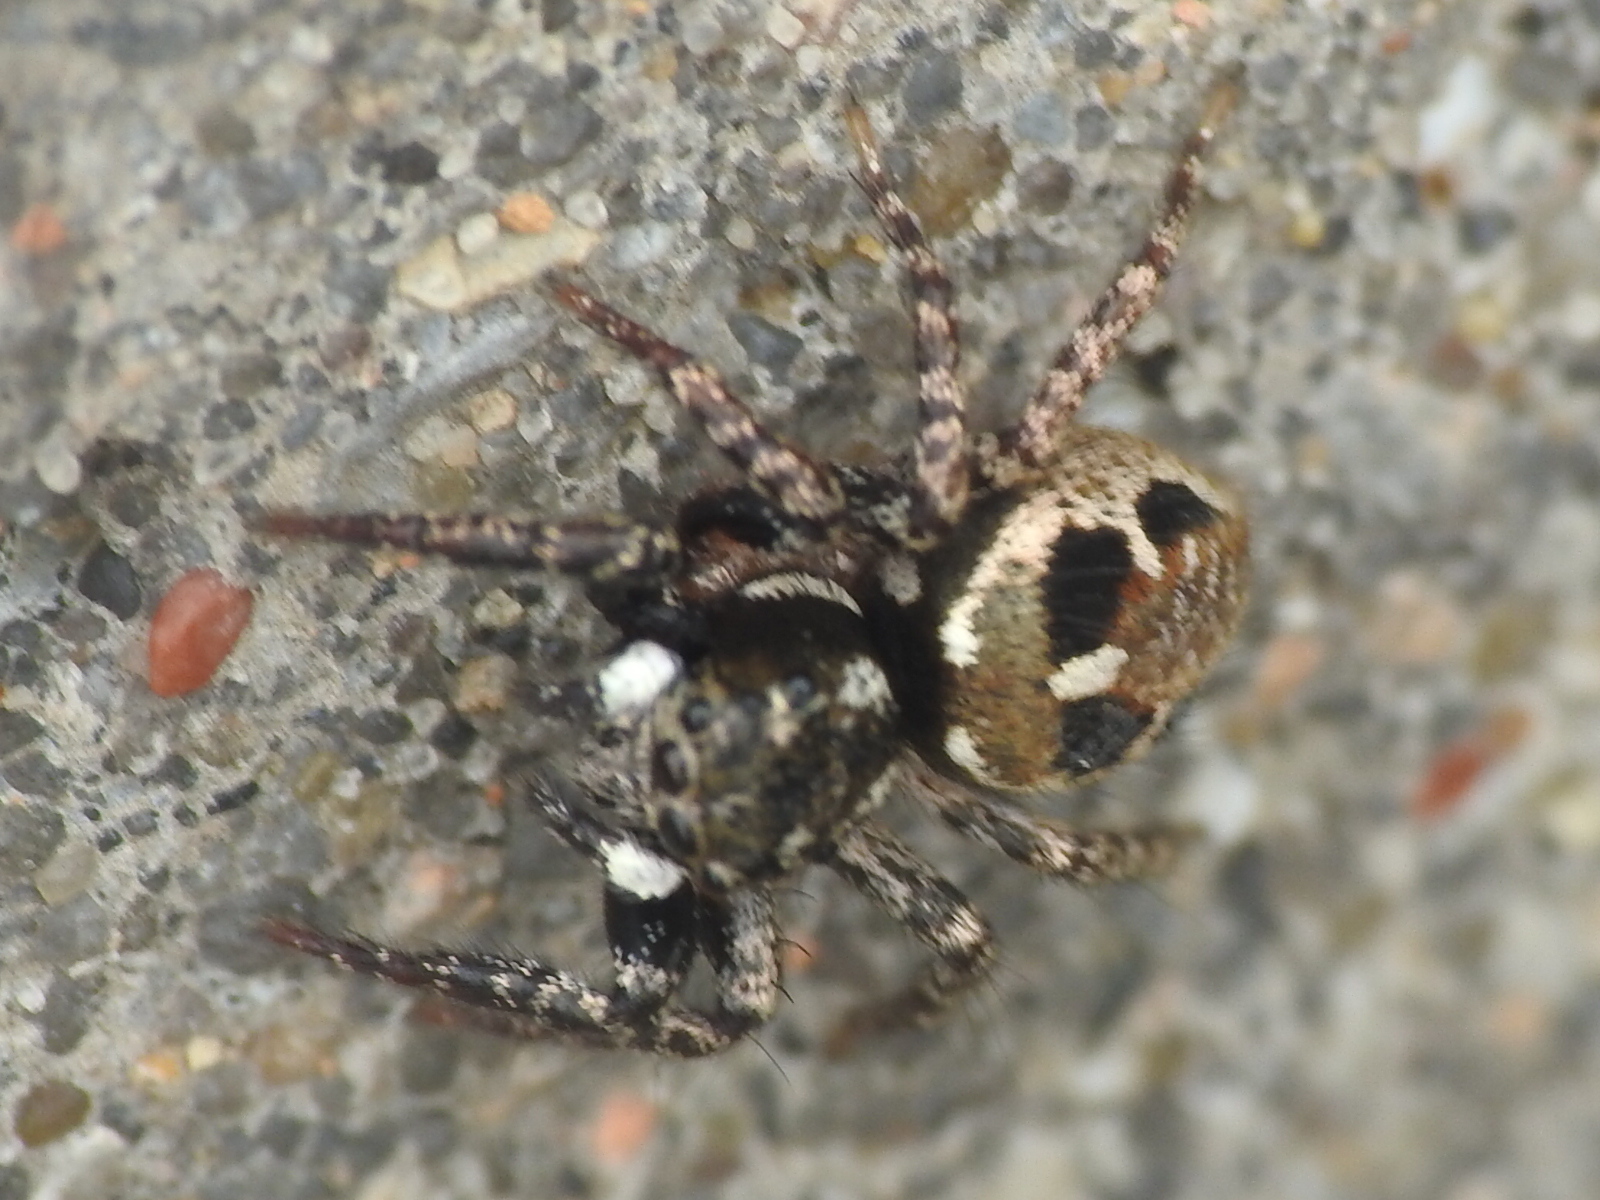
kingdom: Animalia
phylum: Arthropoda
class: Arachnida
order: Araneae
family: Salticidae
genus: Anasaitis
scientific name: Anasaitis canosa
